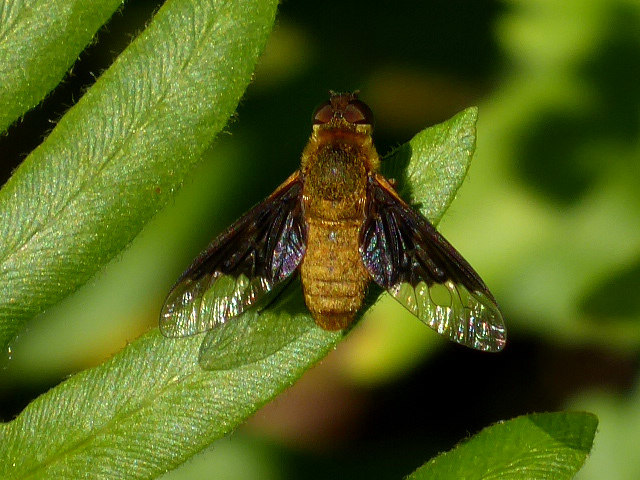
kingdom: Animalia
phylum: Arthropoda
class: Insecta
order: Diptera
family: Bombyliidae
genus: Chrysanthrax
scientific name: Chrysanthrax cypris
